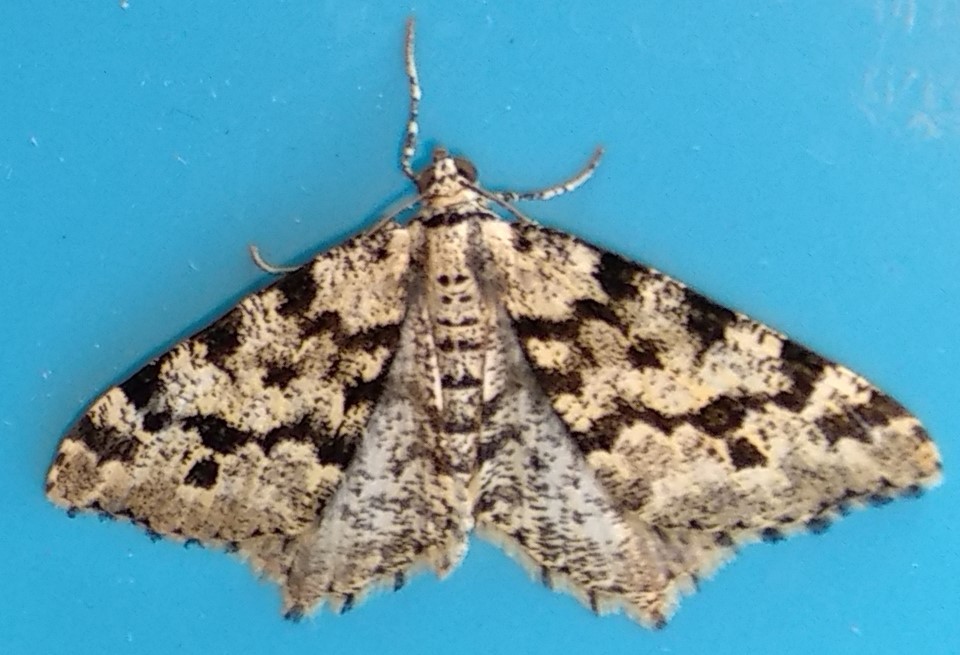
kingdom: Animalia
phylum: Arthropoda
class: Insecta
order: Lepidoptera
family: Geometridae
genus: Macaria
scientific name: Macaria oweni
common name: Owen's angle
